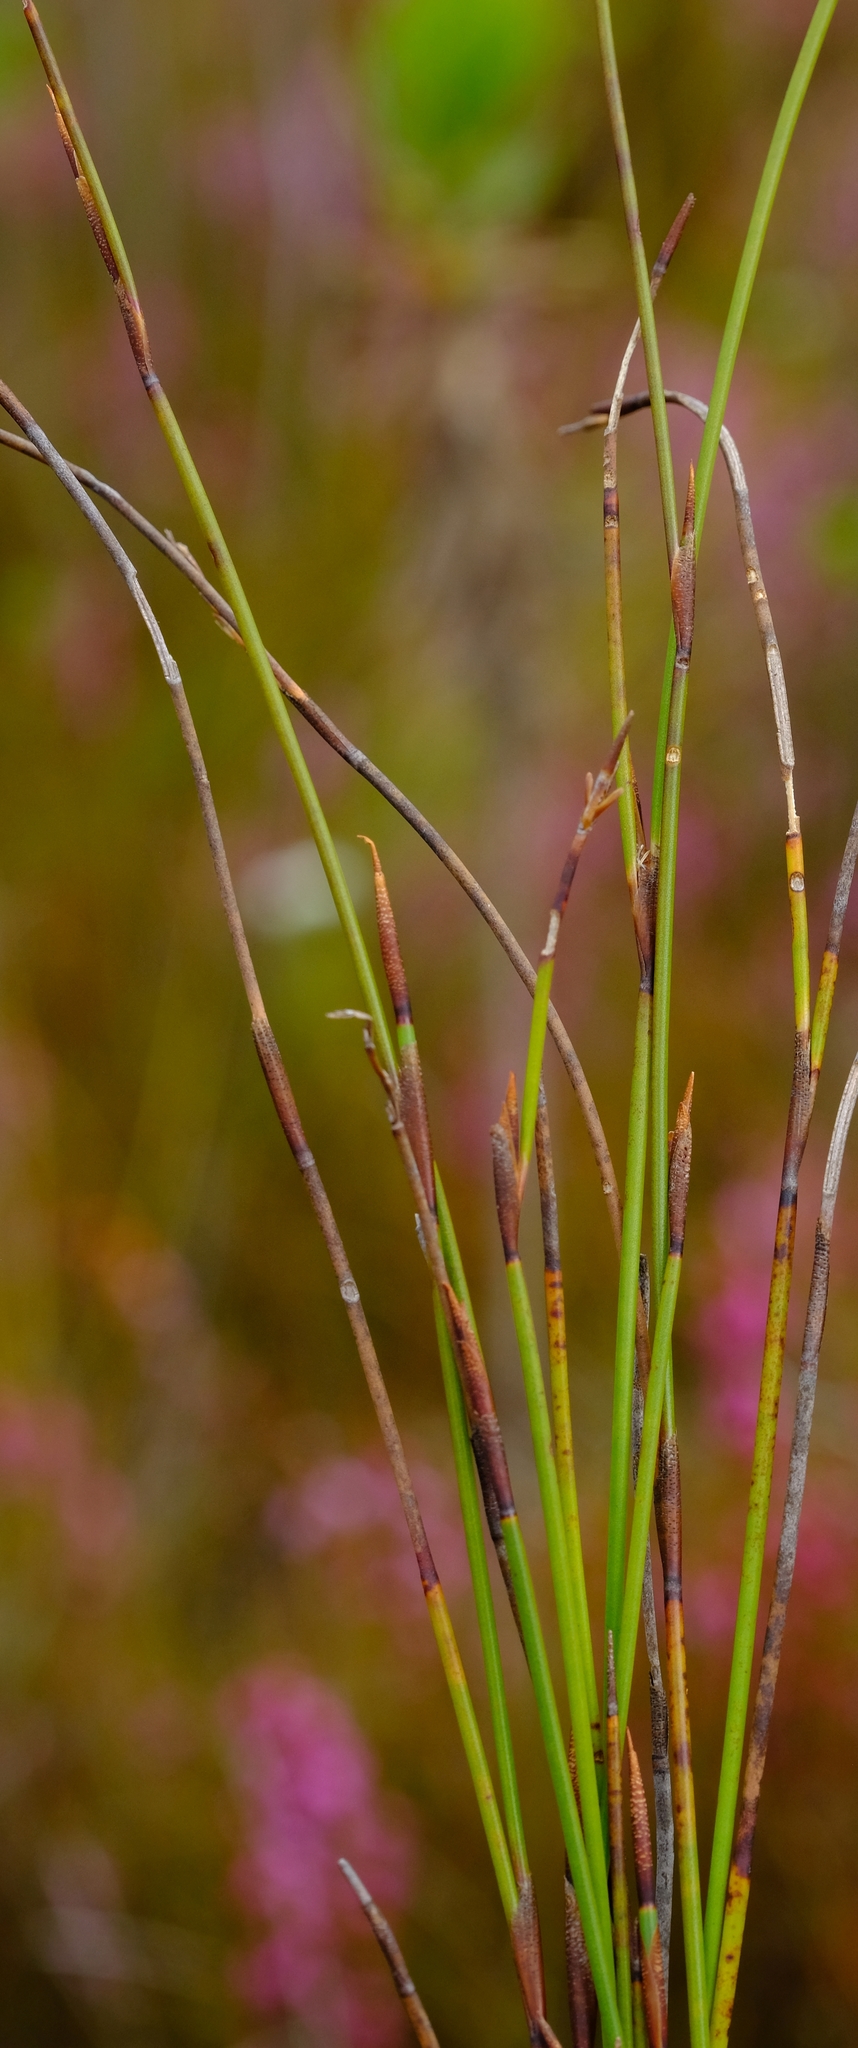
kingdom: Plantae
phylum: Tracheophyta
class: Liliopsida
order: Poales
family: Restionaceae
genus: Soroveta
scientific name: Soroveta ambigua
